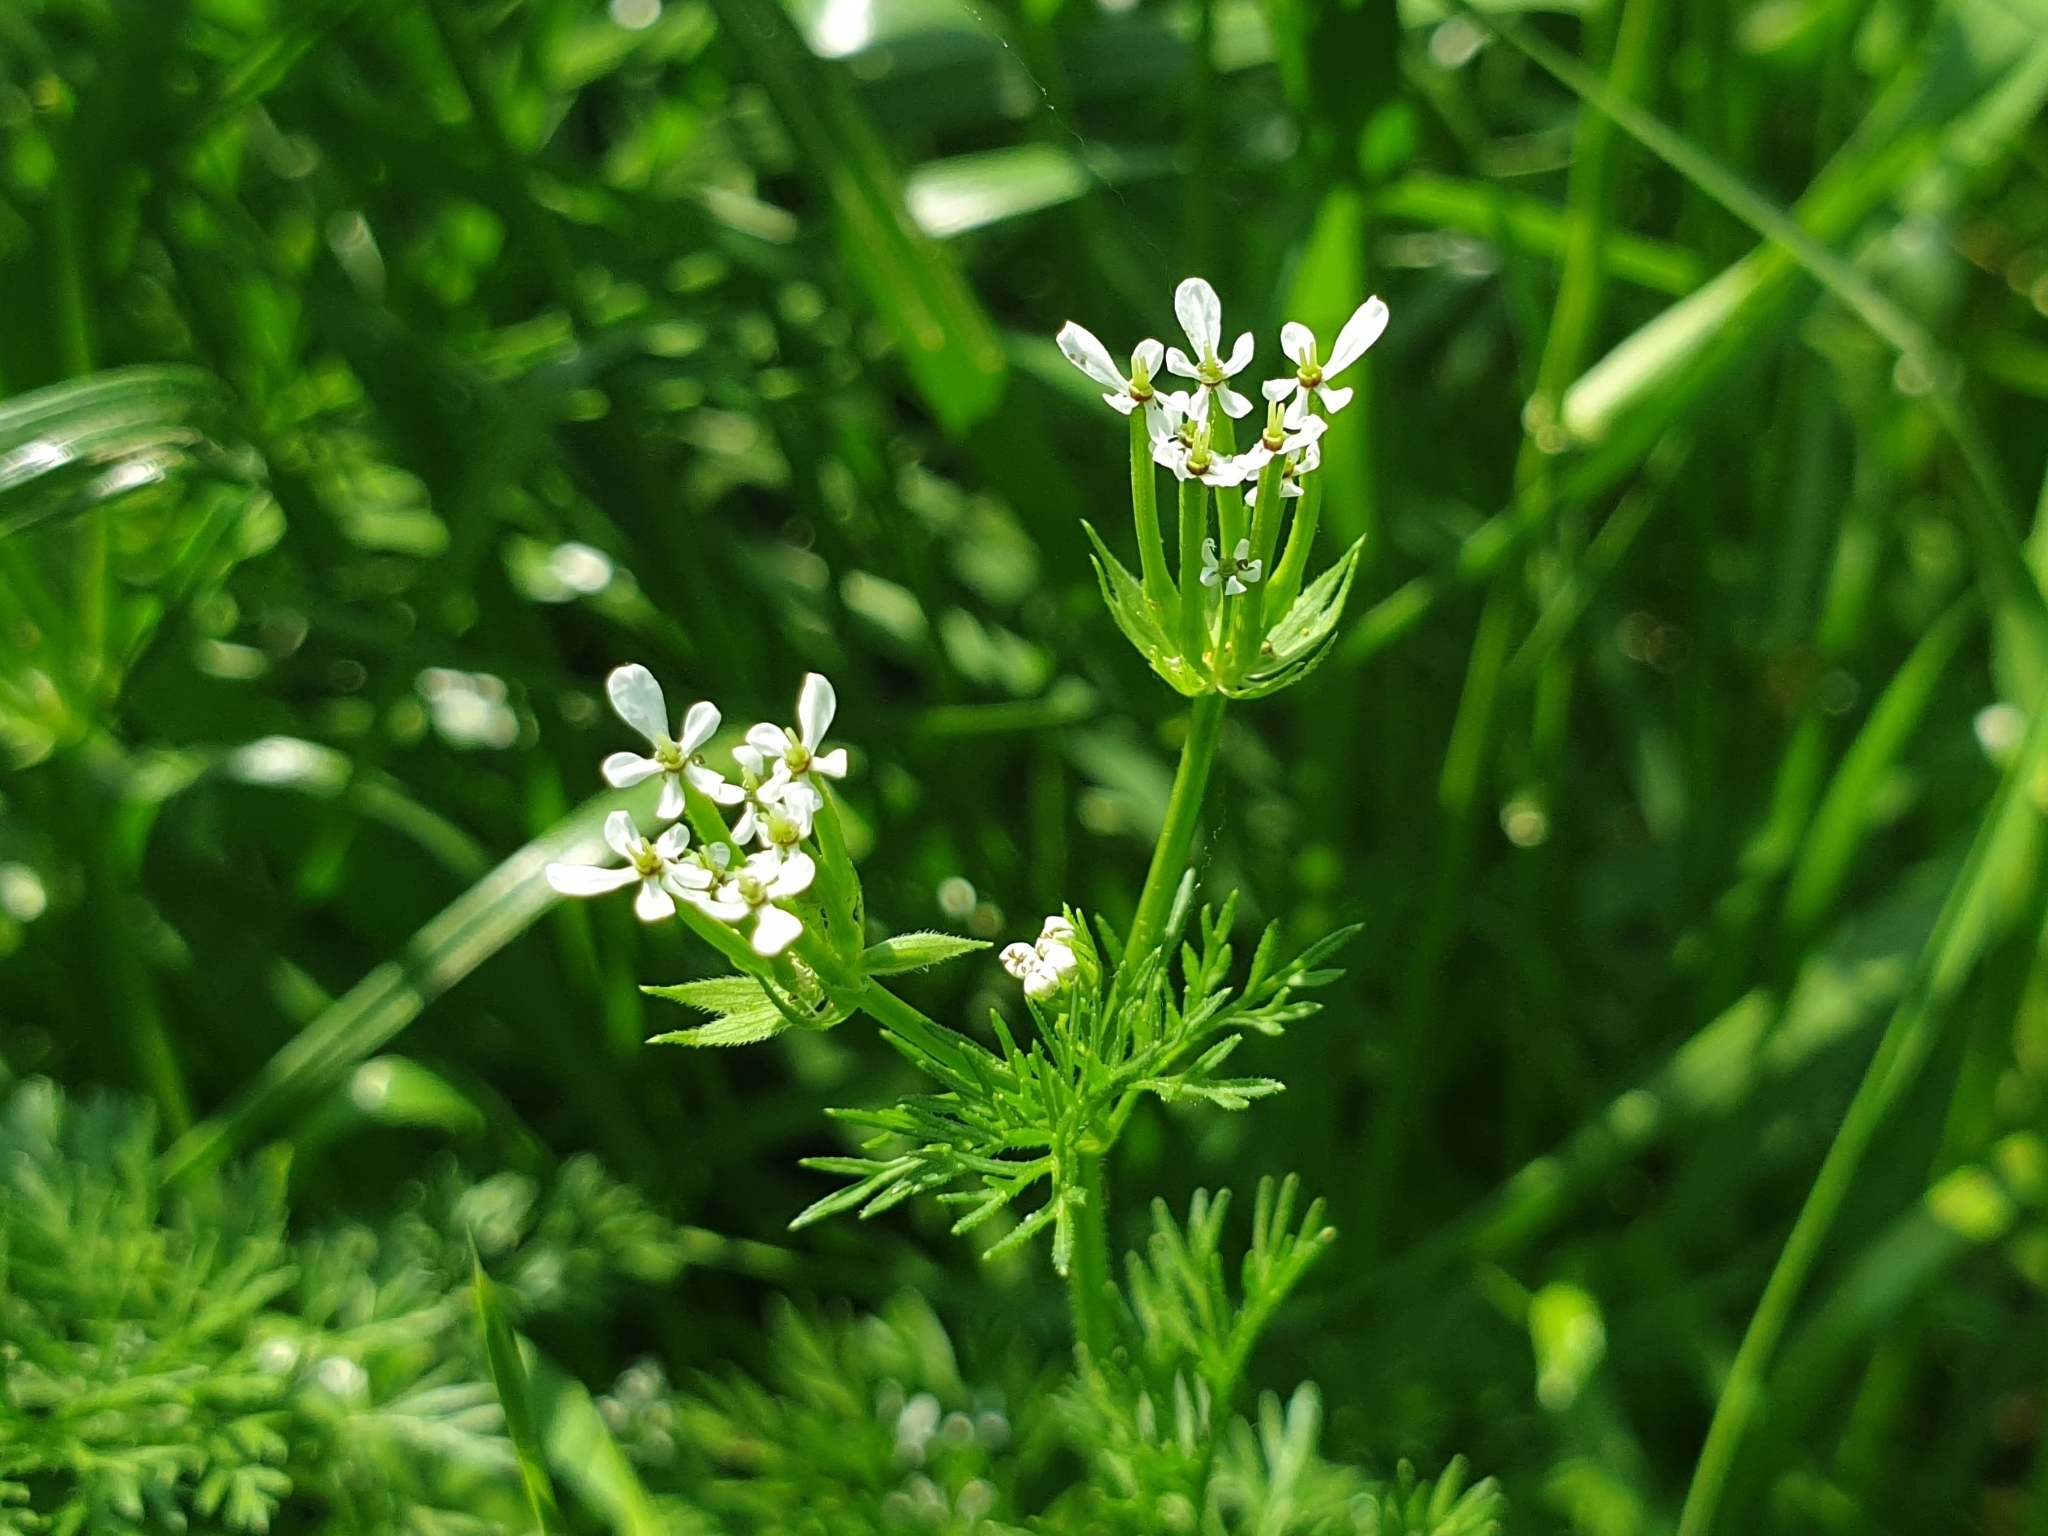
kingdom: Plantae
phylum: Tracheophyta
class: Magnoliopsida
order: Apiales
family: Apiaceae
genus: Scandix
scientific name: Scandix pecten-veneris
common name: Shepherd's-needle
